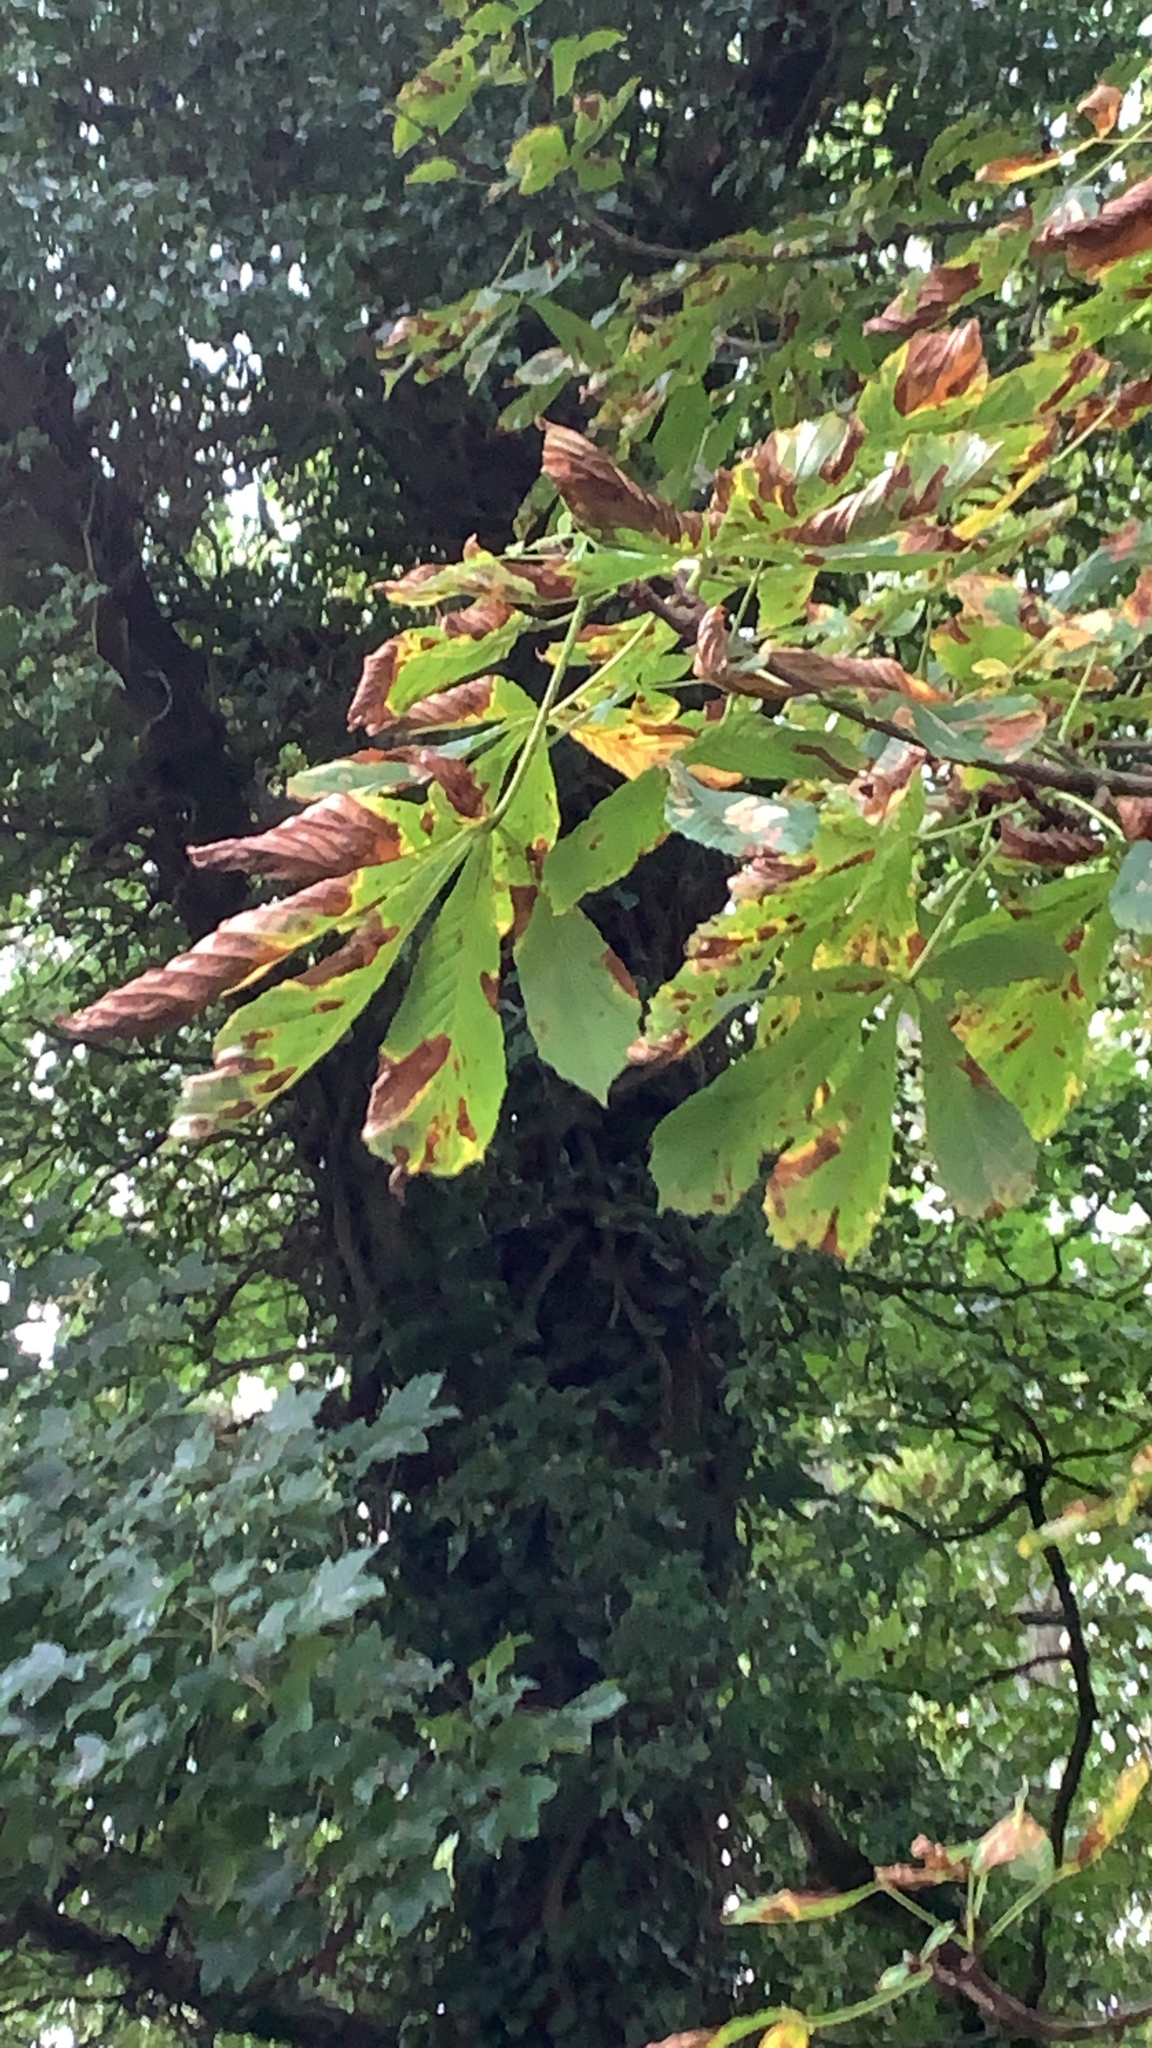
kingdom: Plantae
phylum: Tracheophyta
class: Magnoliopsida
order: Sapindales
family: Sapindaceae
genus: Aesculus
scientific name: Aesculus hippocastanum
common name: Horse-chestnut
